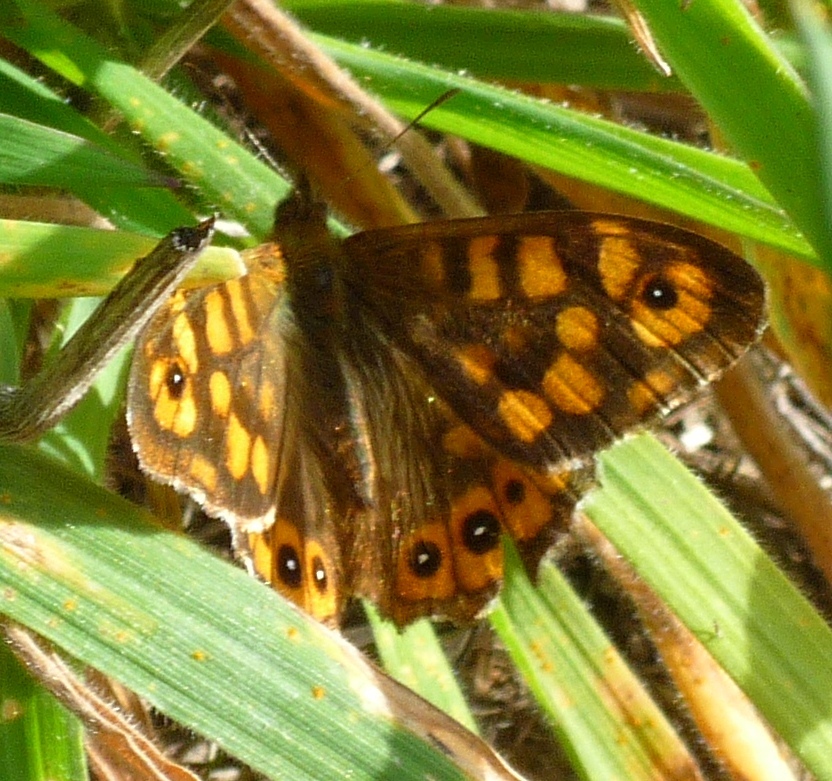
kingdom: Animalia
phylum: Arthropoda
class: Insecta
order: Lepidoptera
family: Nymphalidae
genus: Pararge
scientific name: Pararge aegeria
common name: Speckled wood
